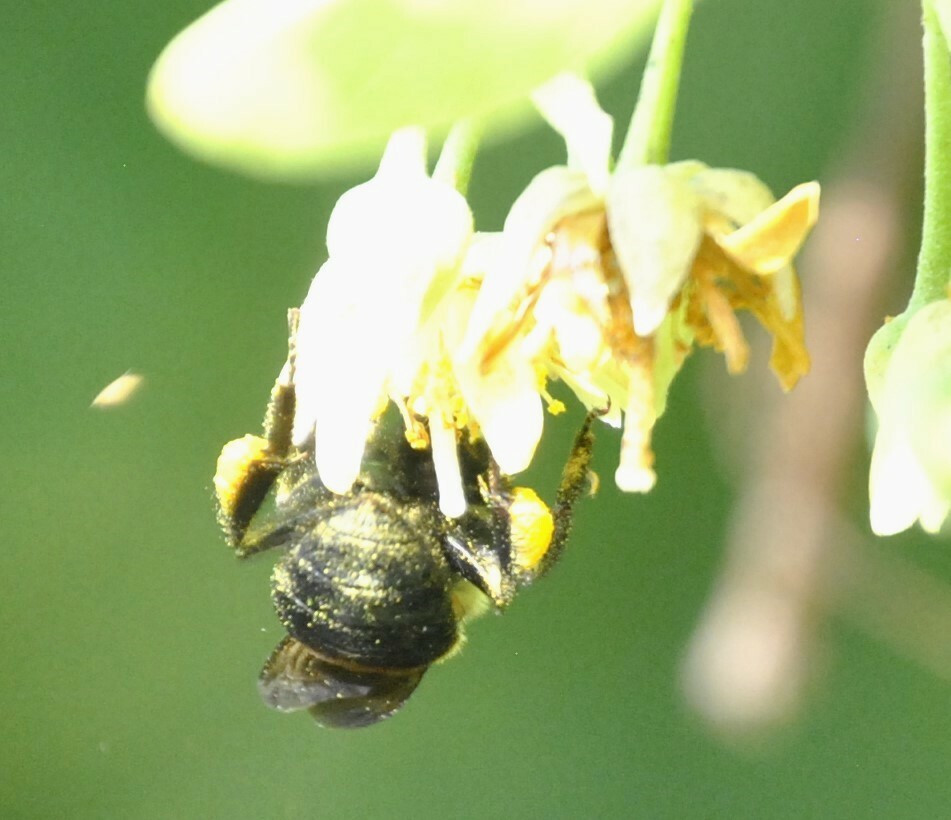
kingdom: Animalia
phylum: Arthropoda
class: Insecta
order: Hymenoptera
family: Apidae
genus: Bombus
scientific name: Bombus griseocollis
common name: Brown-belted bumble bee
